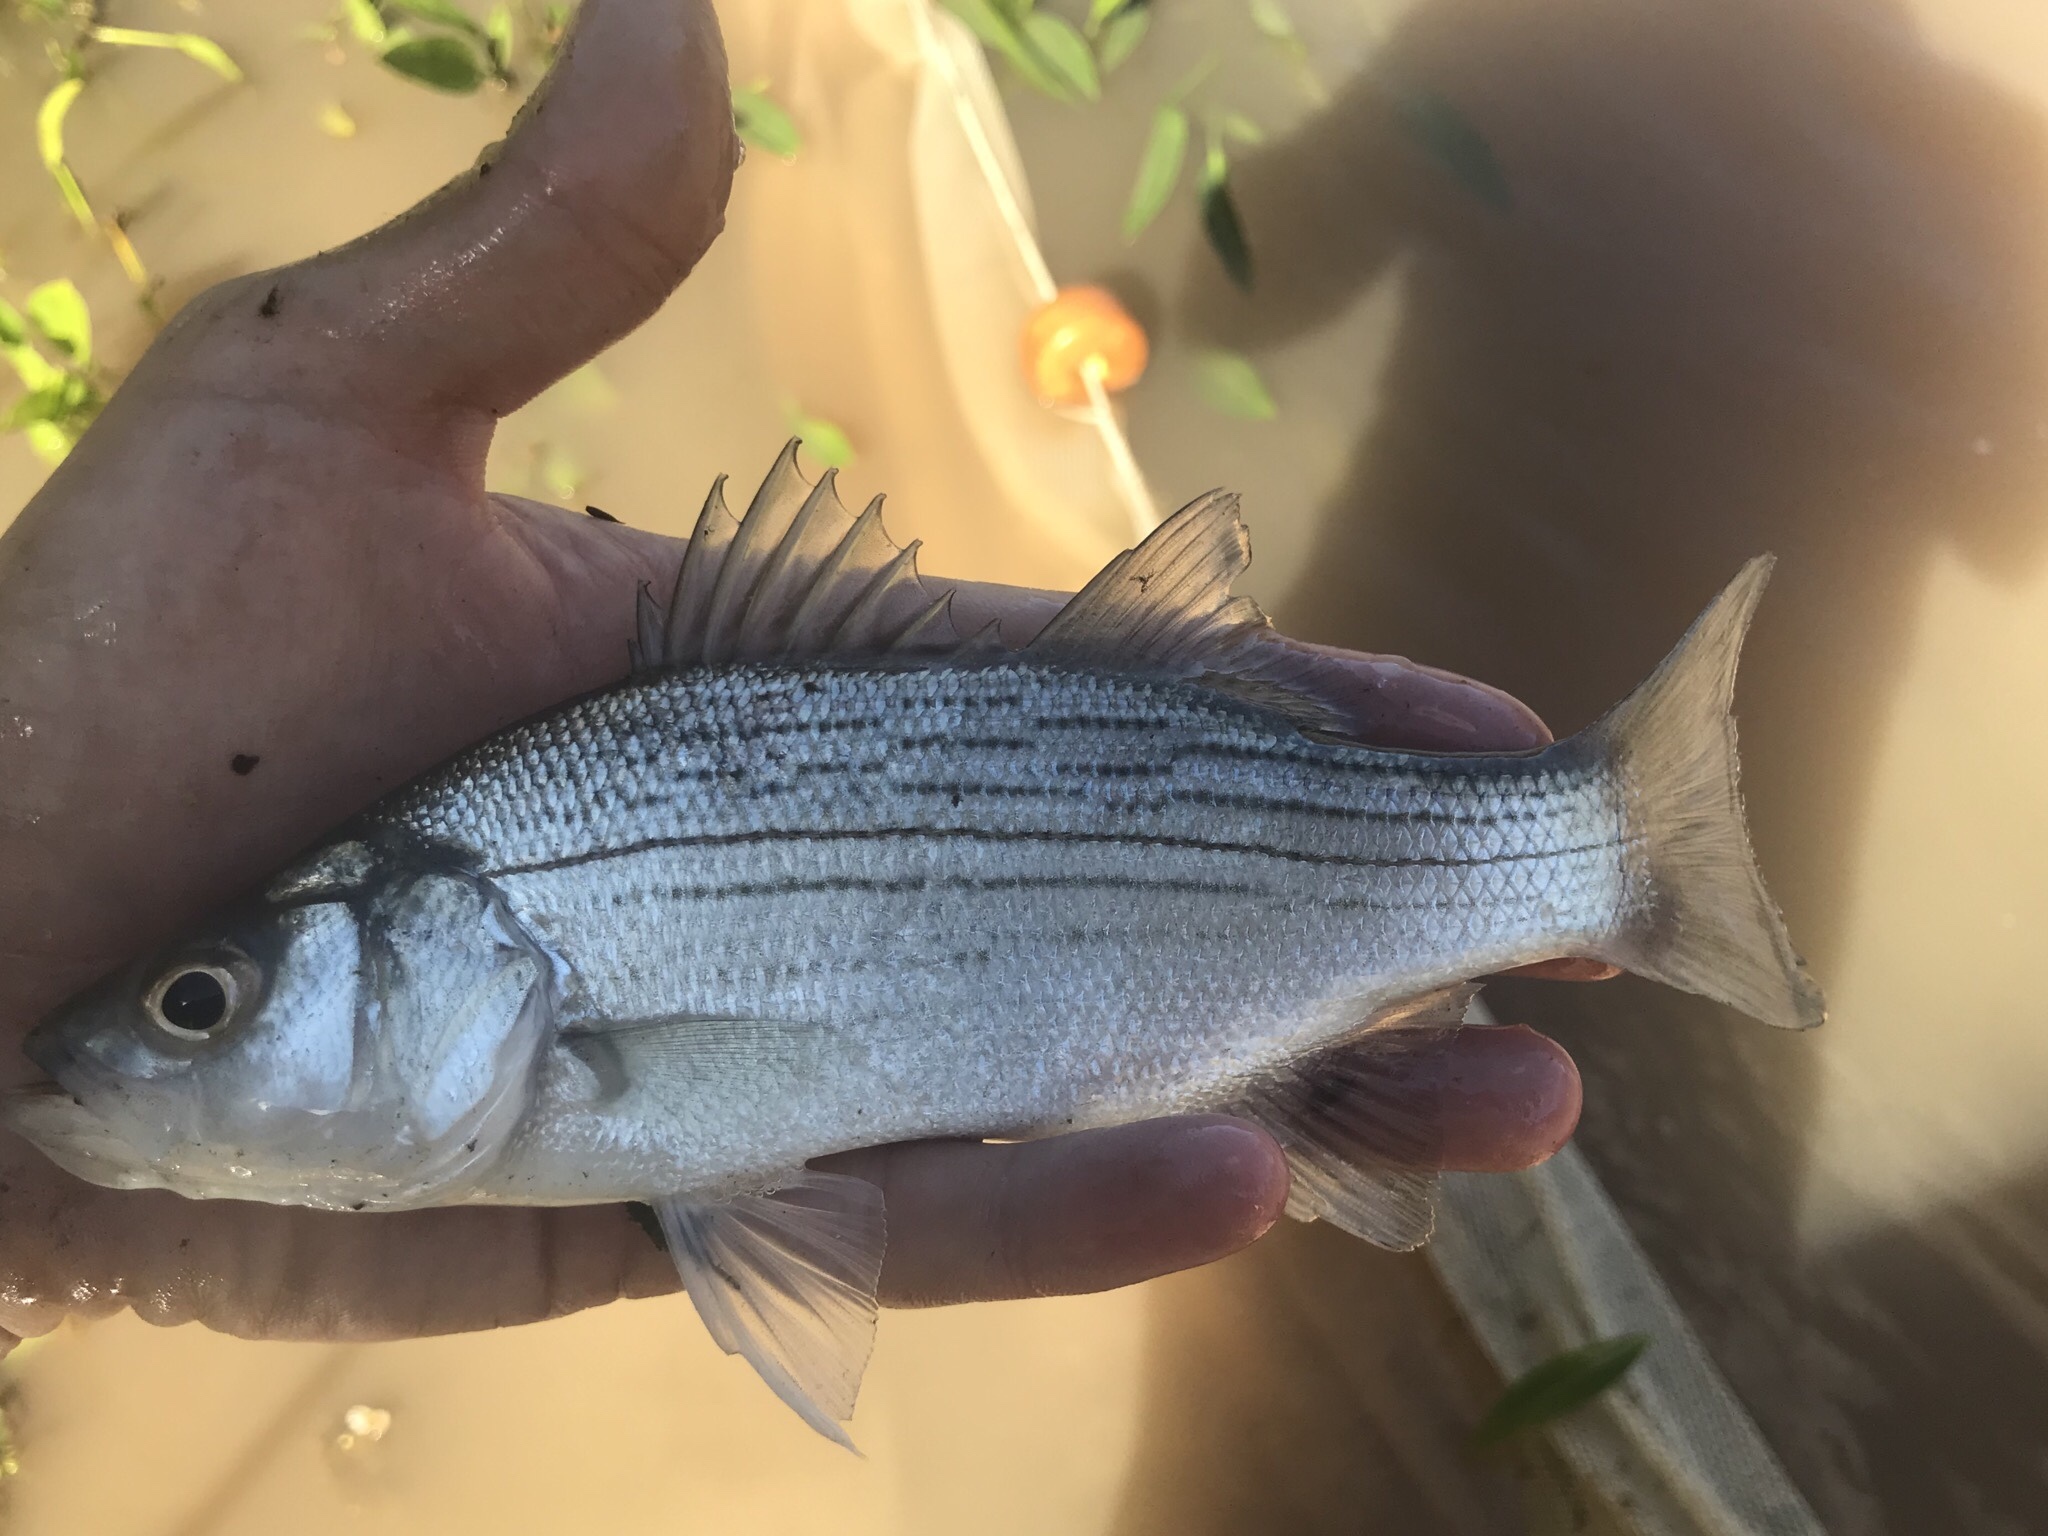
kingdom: Animalia
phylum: Chordata
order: Perciformes
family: Moronidae
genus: Morone
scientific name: Morone chrysops
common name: White bass
